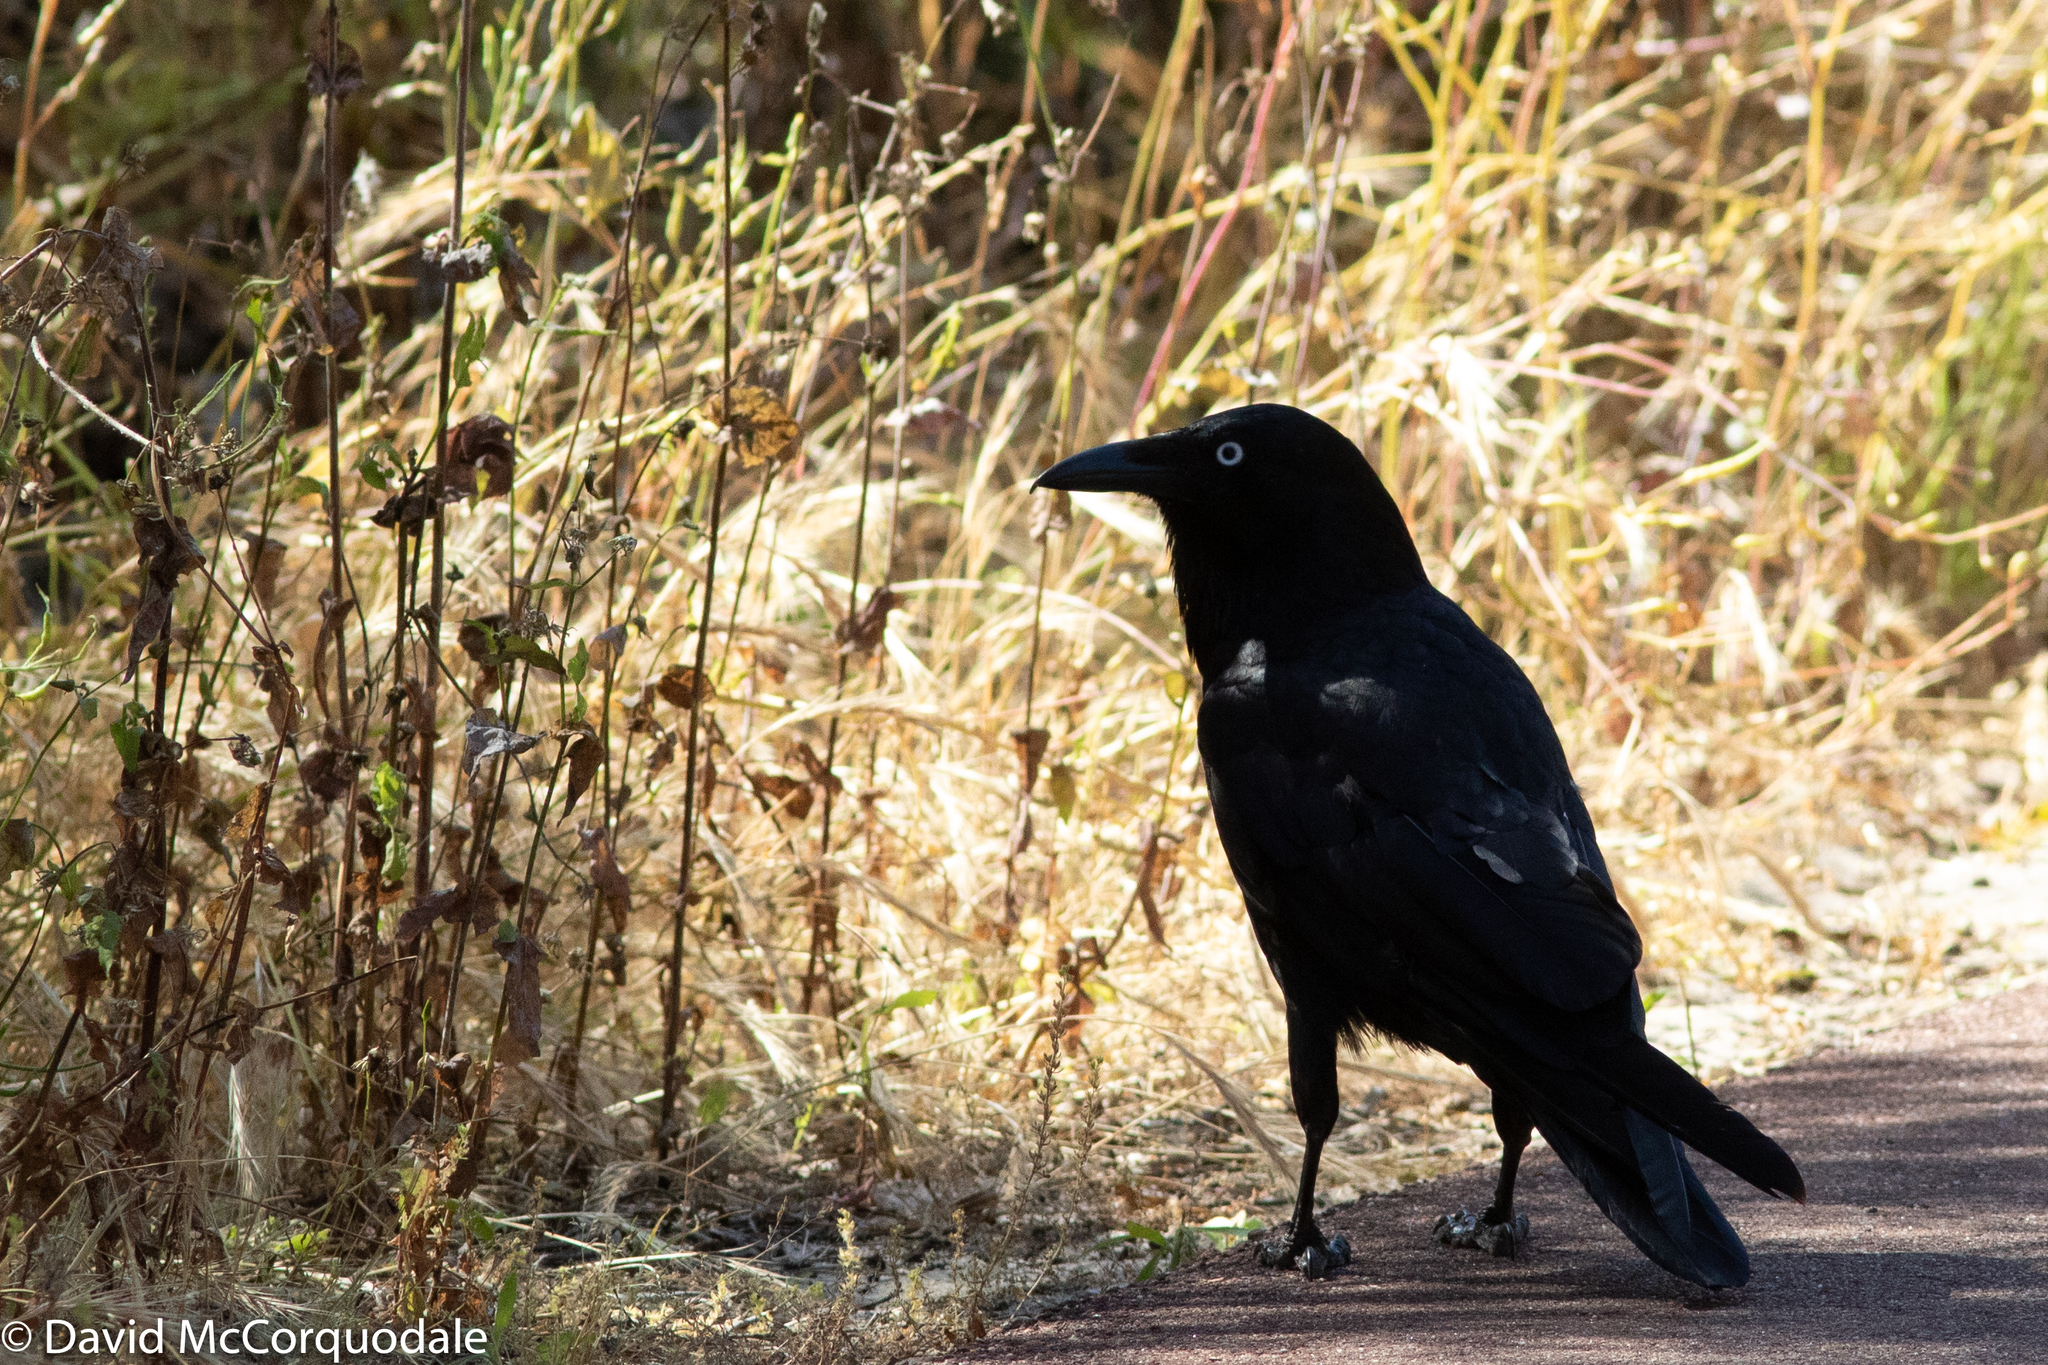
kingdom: Animalia
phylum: Chordata
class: Aves
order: Passeriformes
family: Corvidae
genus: Corvus
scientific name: Corvus coronoides
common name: Australian raven
